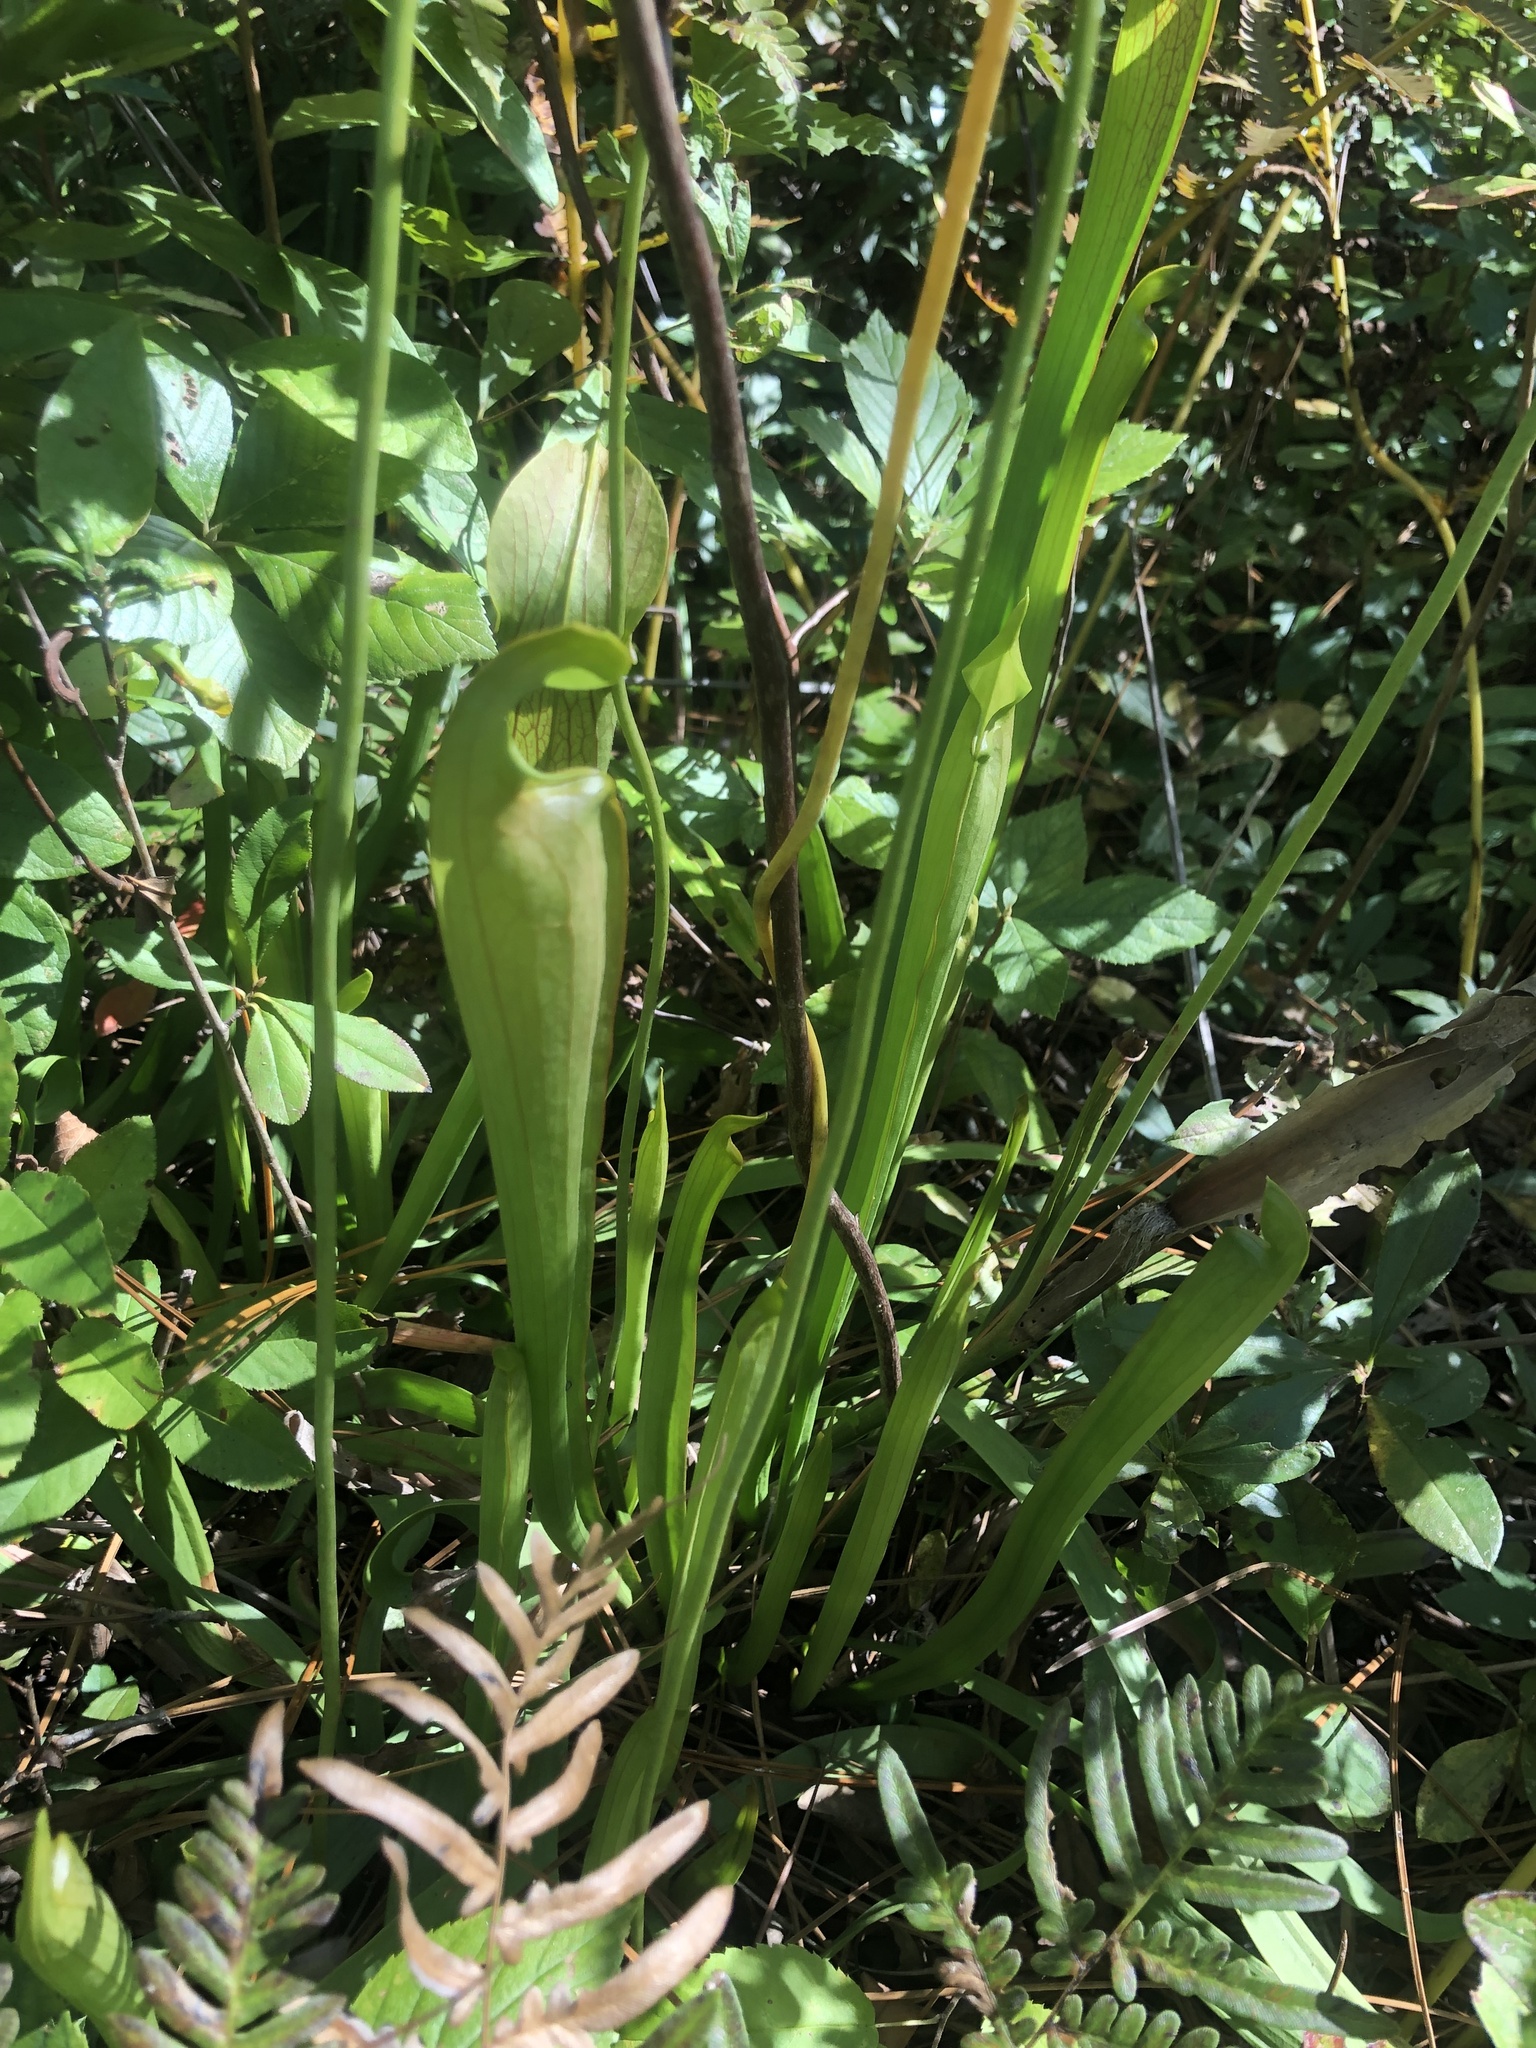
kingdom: Plantae
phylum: Tracheophyta
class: Magnoliopsida
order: Ericales
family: Sarraceniaceae
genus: Sarracenia
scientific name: Sarracenia rubra
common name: Sweet pitcherplant
